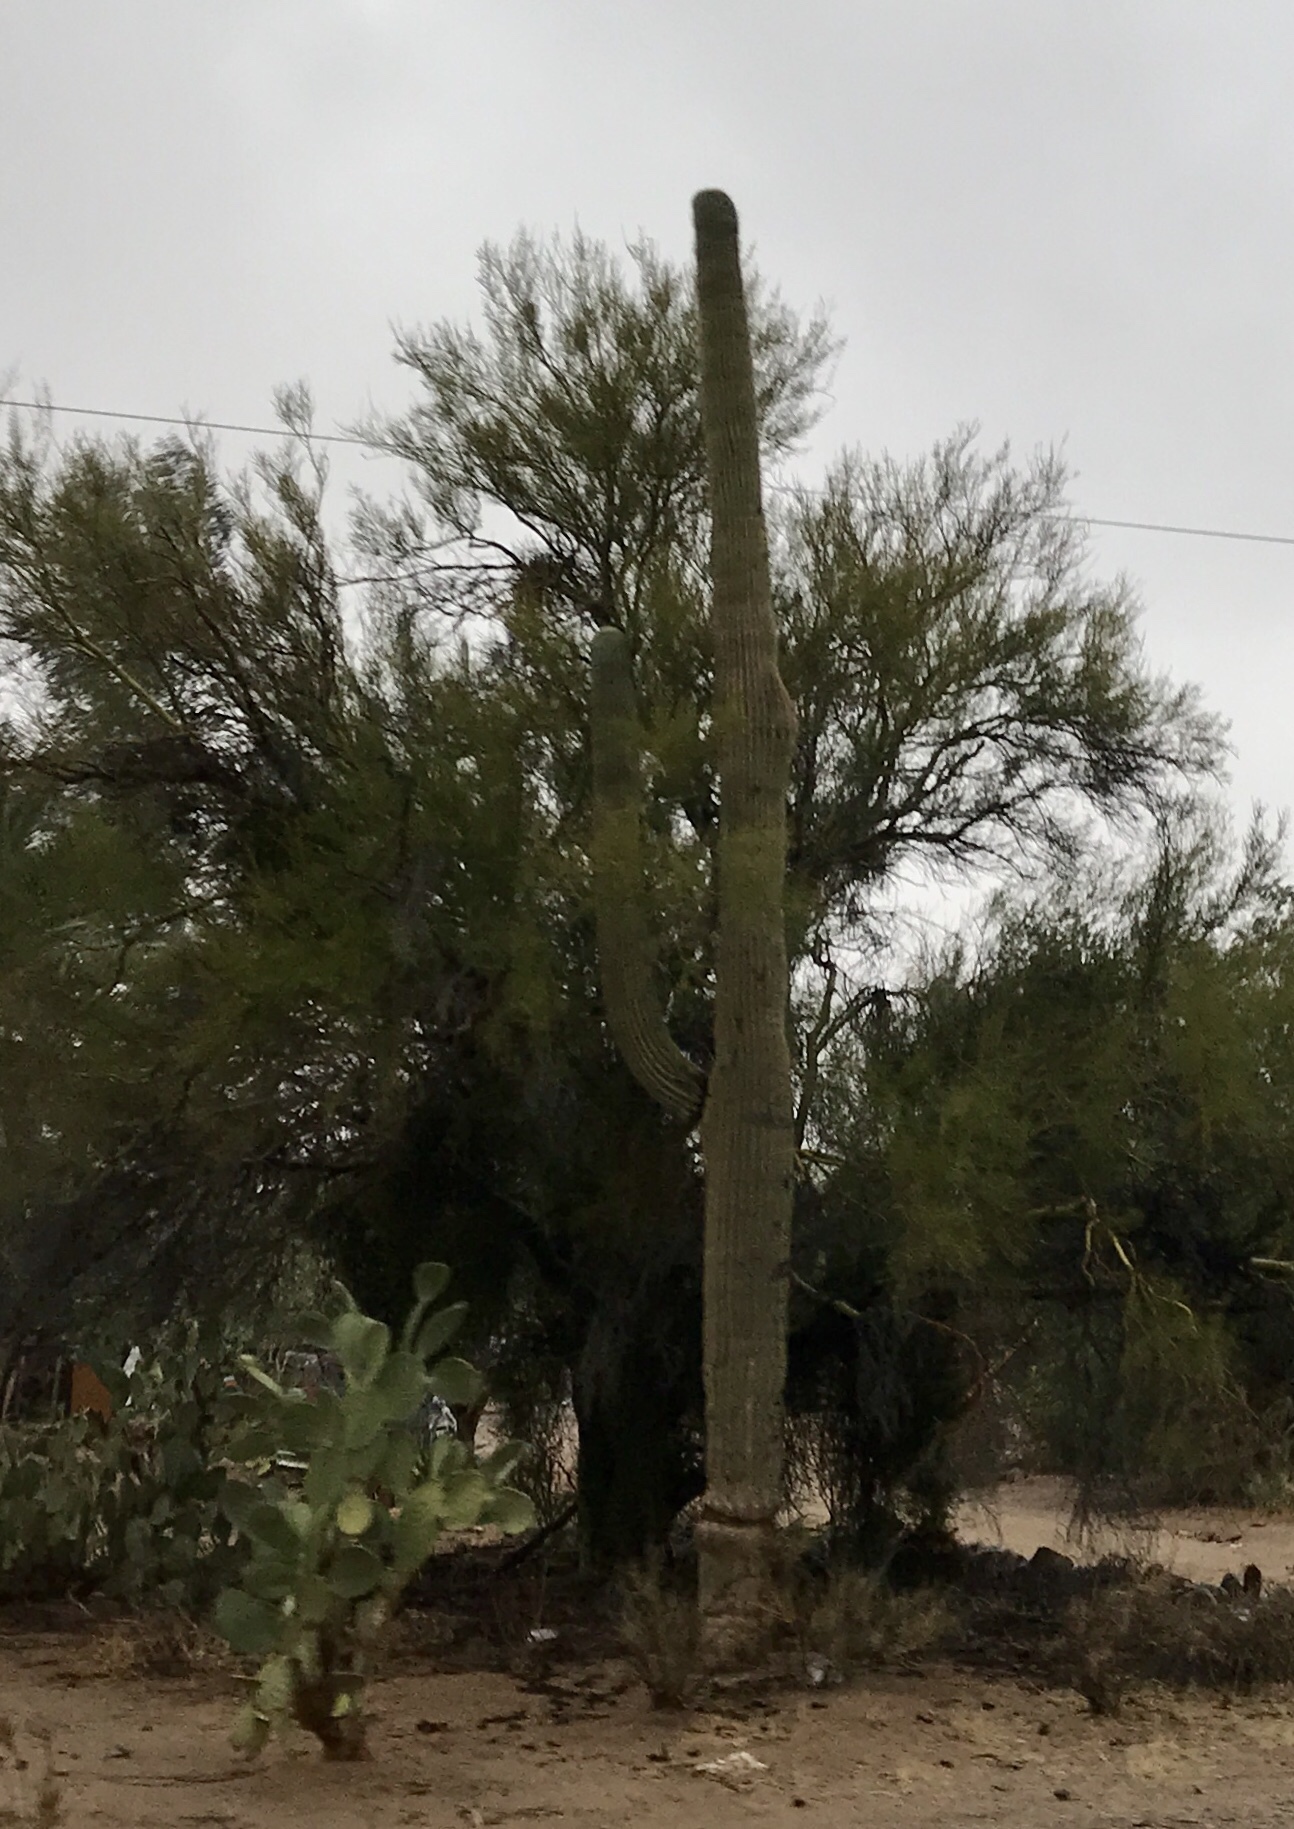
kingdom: Plantae
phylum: Tracheophyta
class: Magnoliopsida
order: Caryophyllales
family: Cactaceae
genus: Carnegiea
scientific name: Carnegiea gigantea
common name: Saguaro
